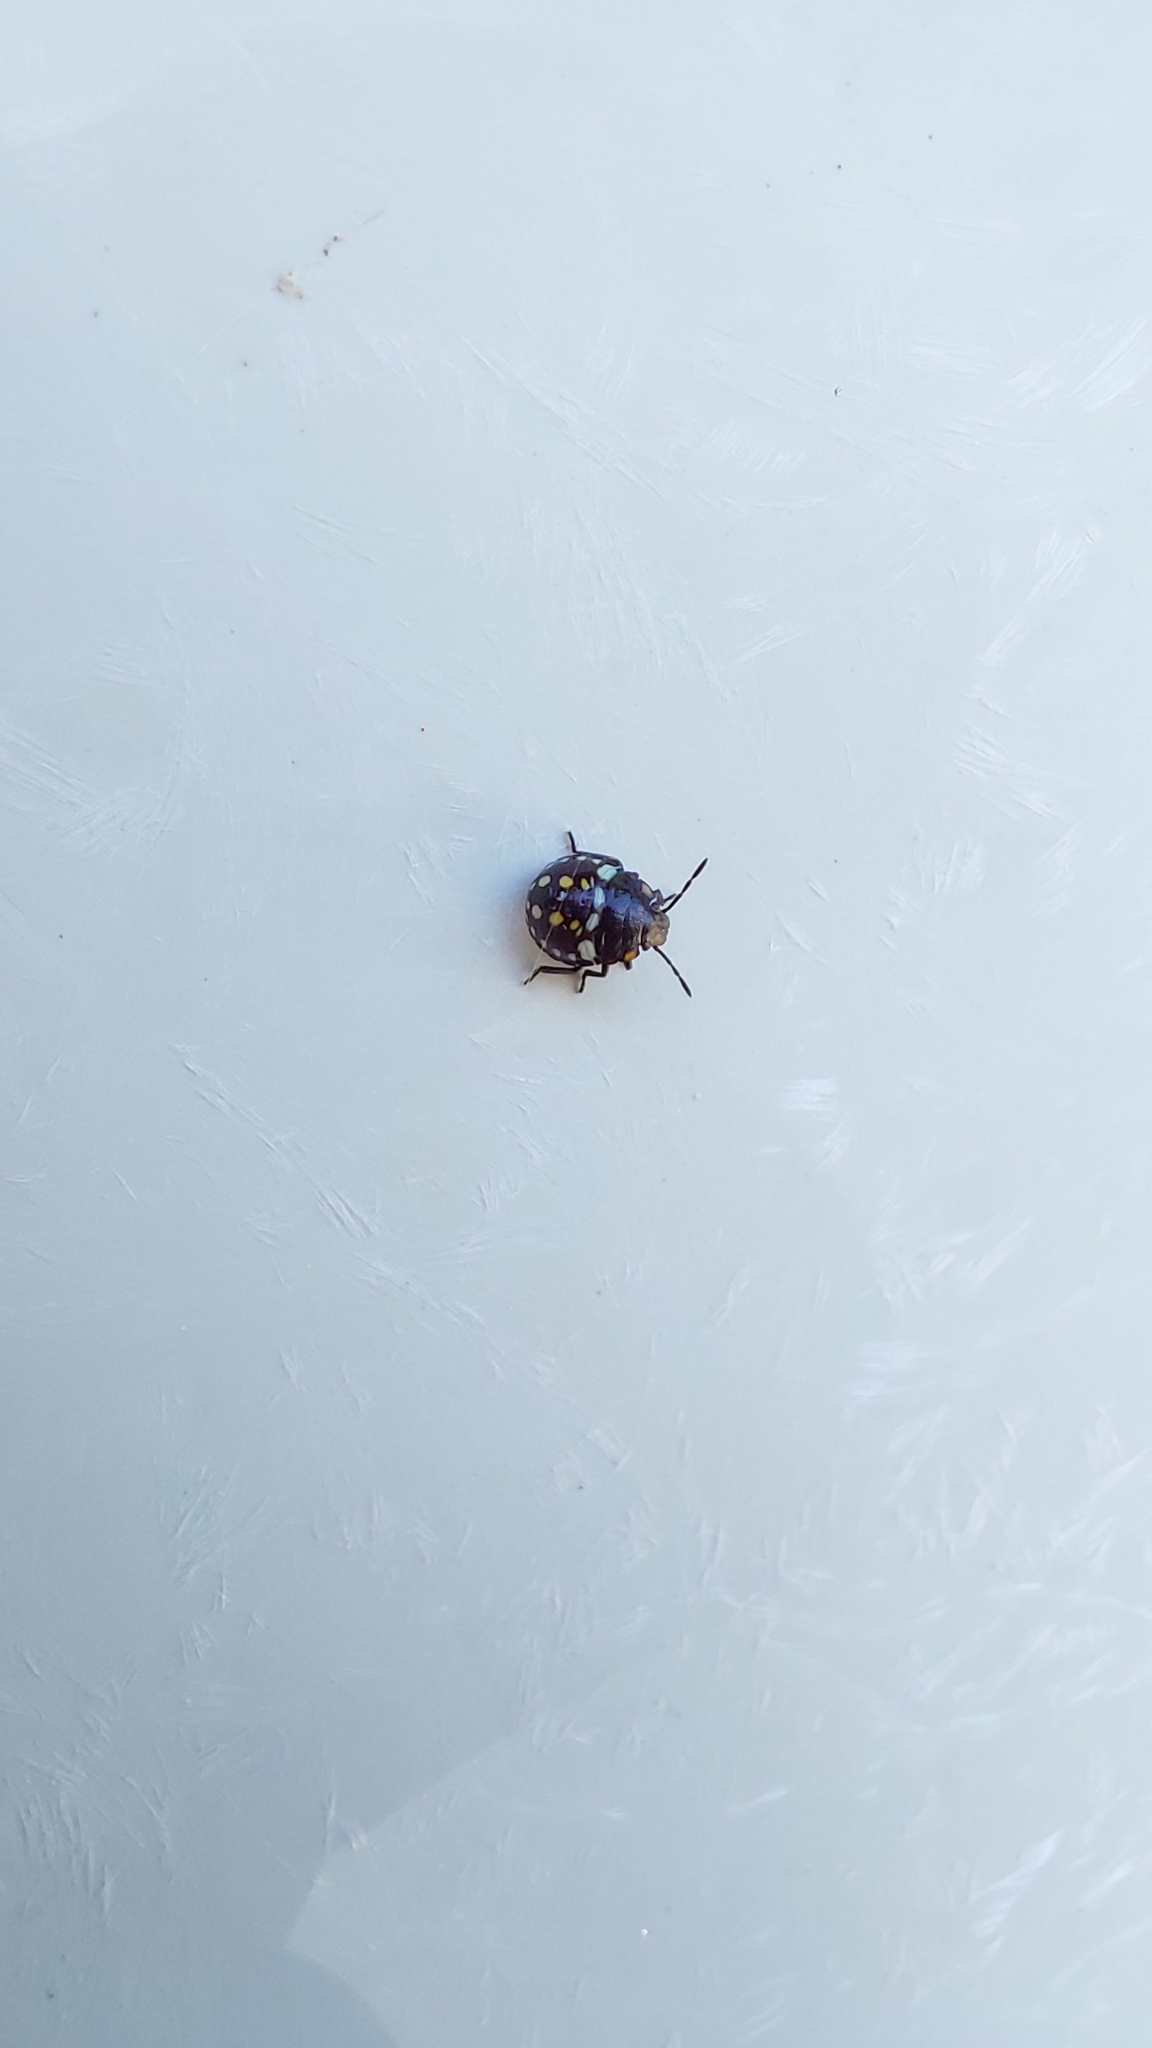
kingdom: Animalia
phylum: Arthropoda
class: Insecta
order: Hemiptera
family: Pentatomidae
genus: Nezara
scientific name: Nezara viridula
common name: Southern green stink bug
